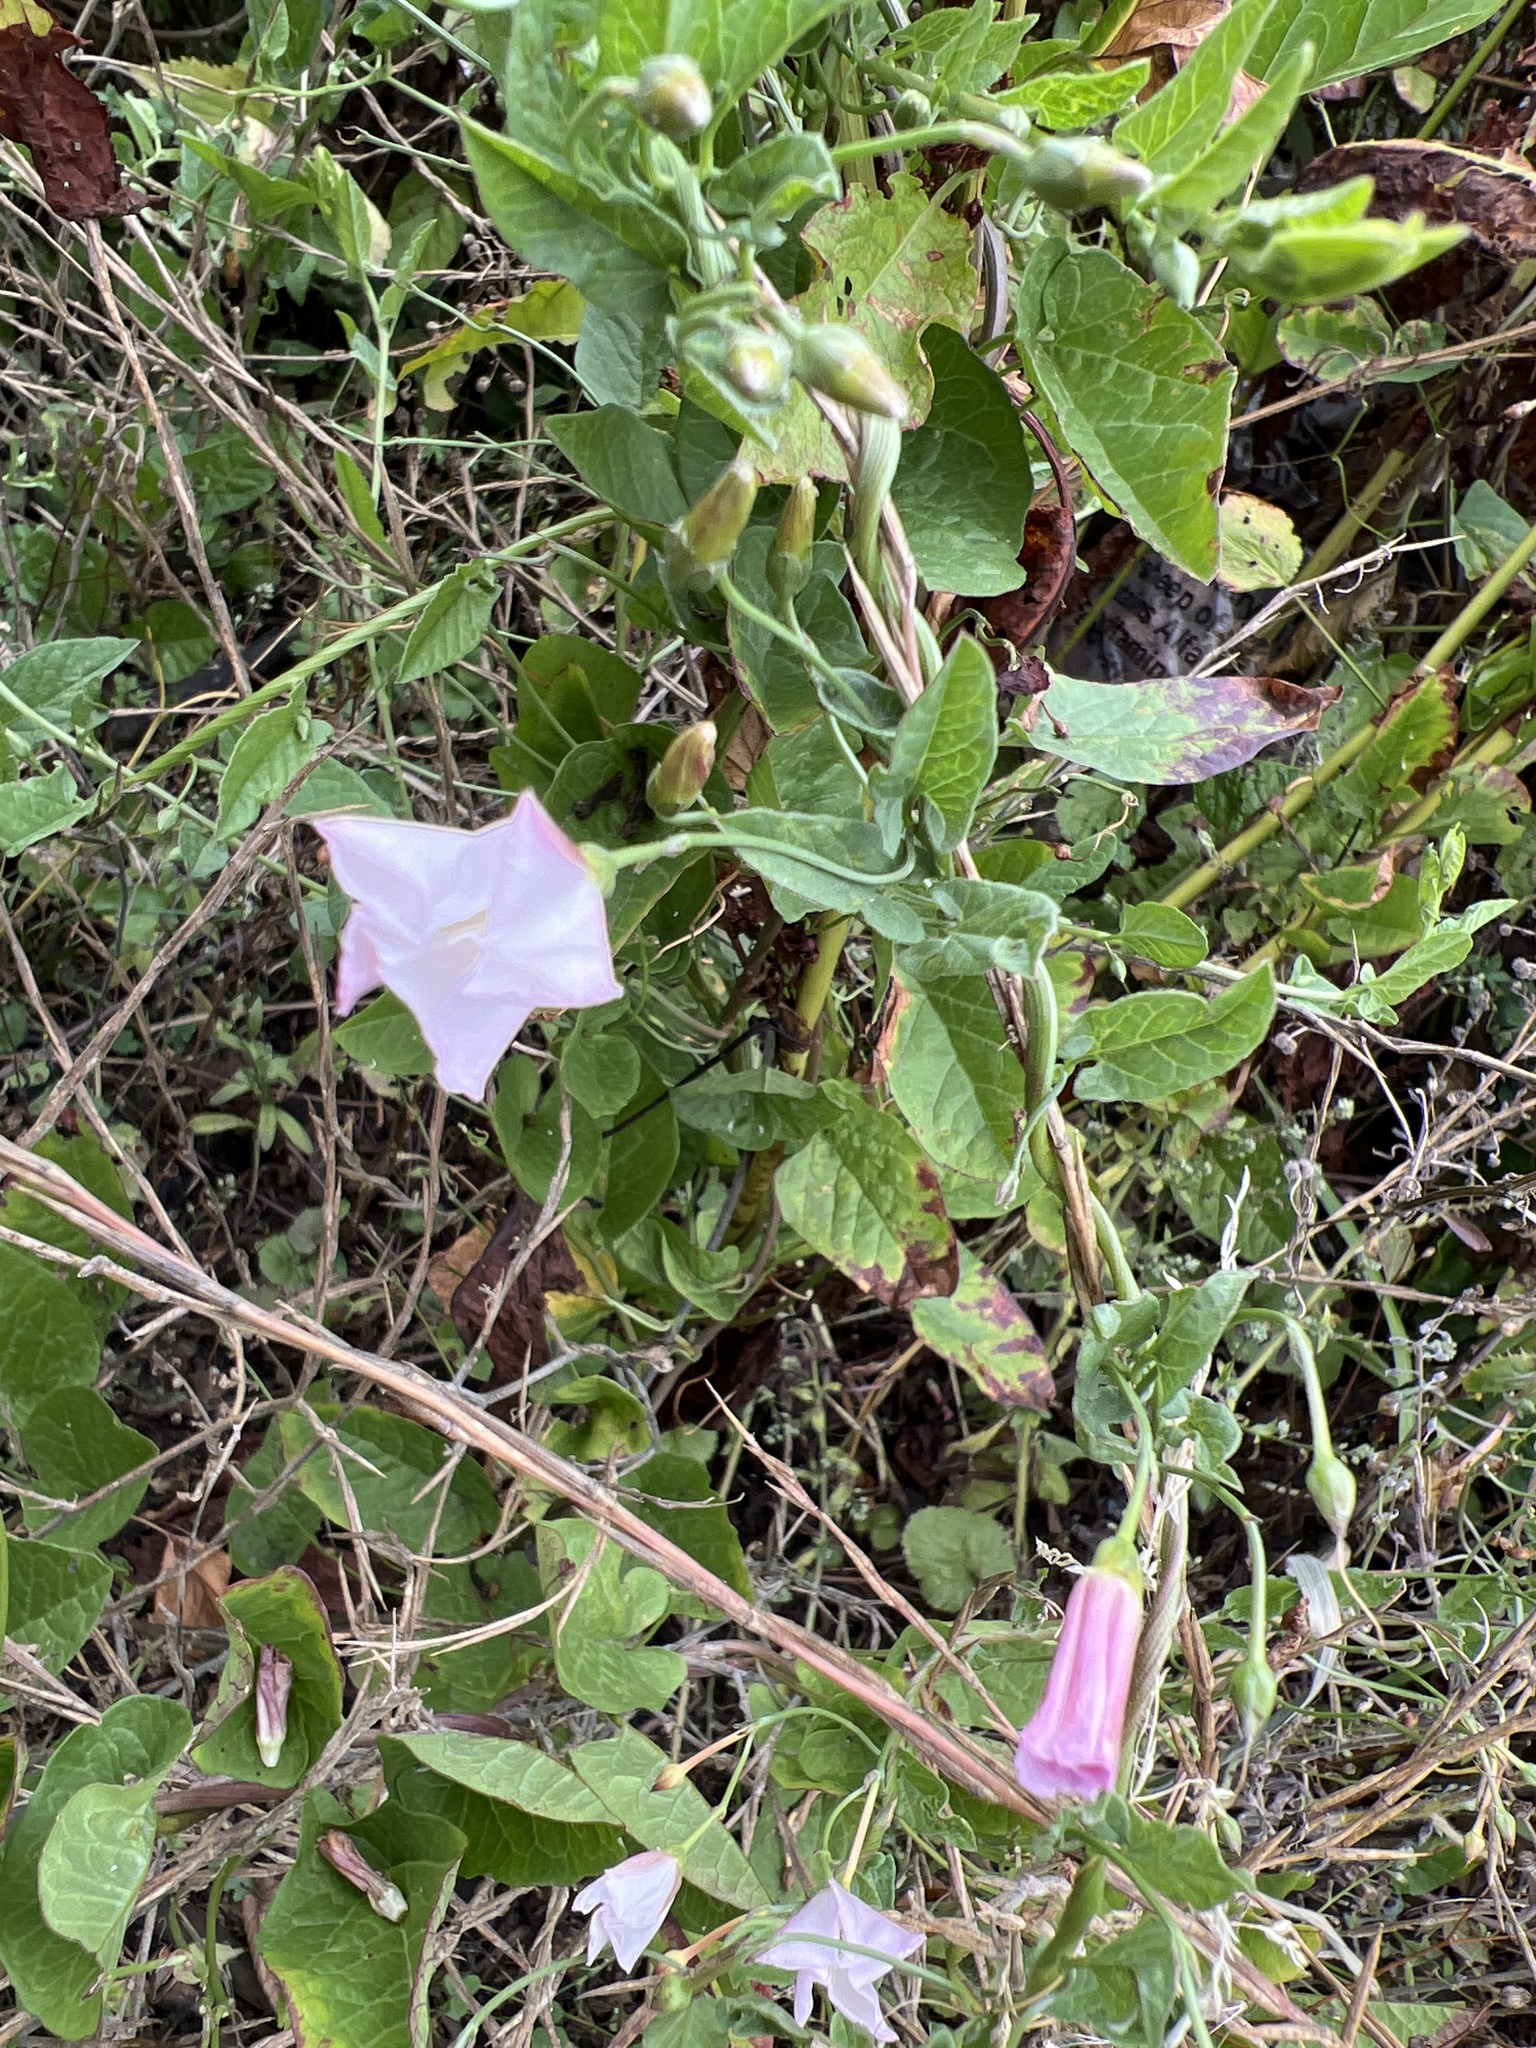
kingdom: Plantae
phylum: Tracheophyta
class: Magnoliopsida
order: Solanales
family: Convolvulaceae
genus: Convolvulus
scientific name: Convolvulus arvensis
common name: Field bindweed
